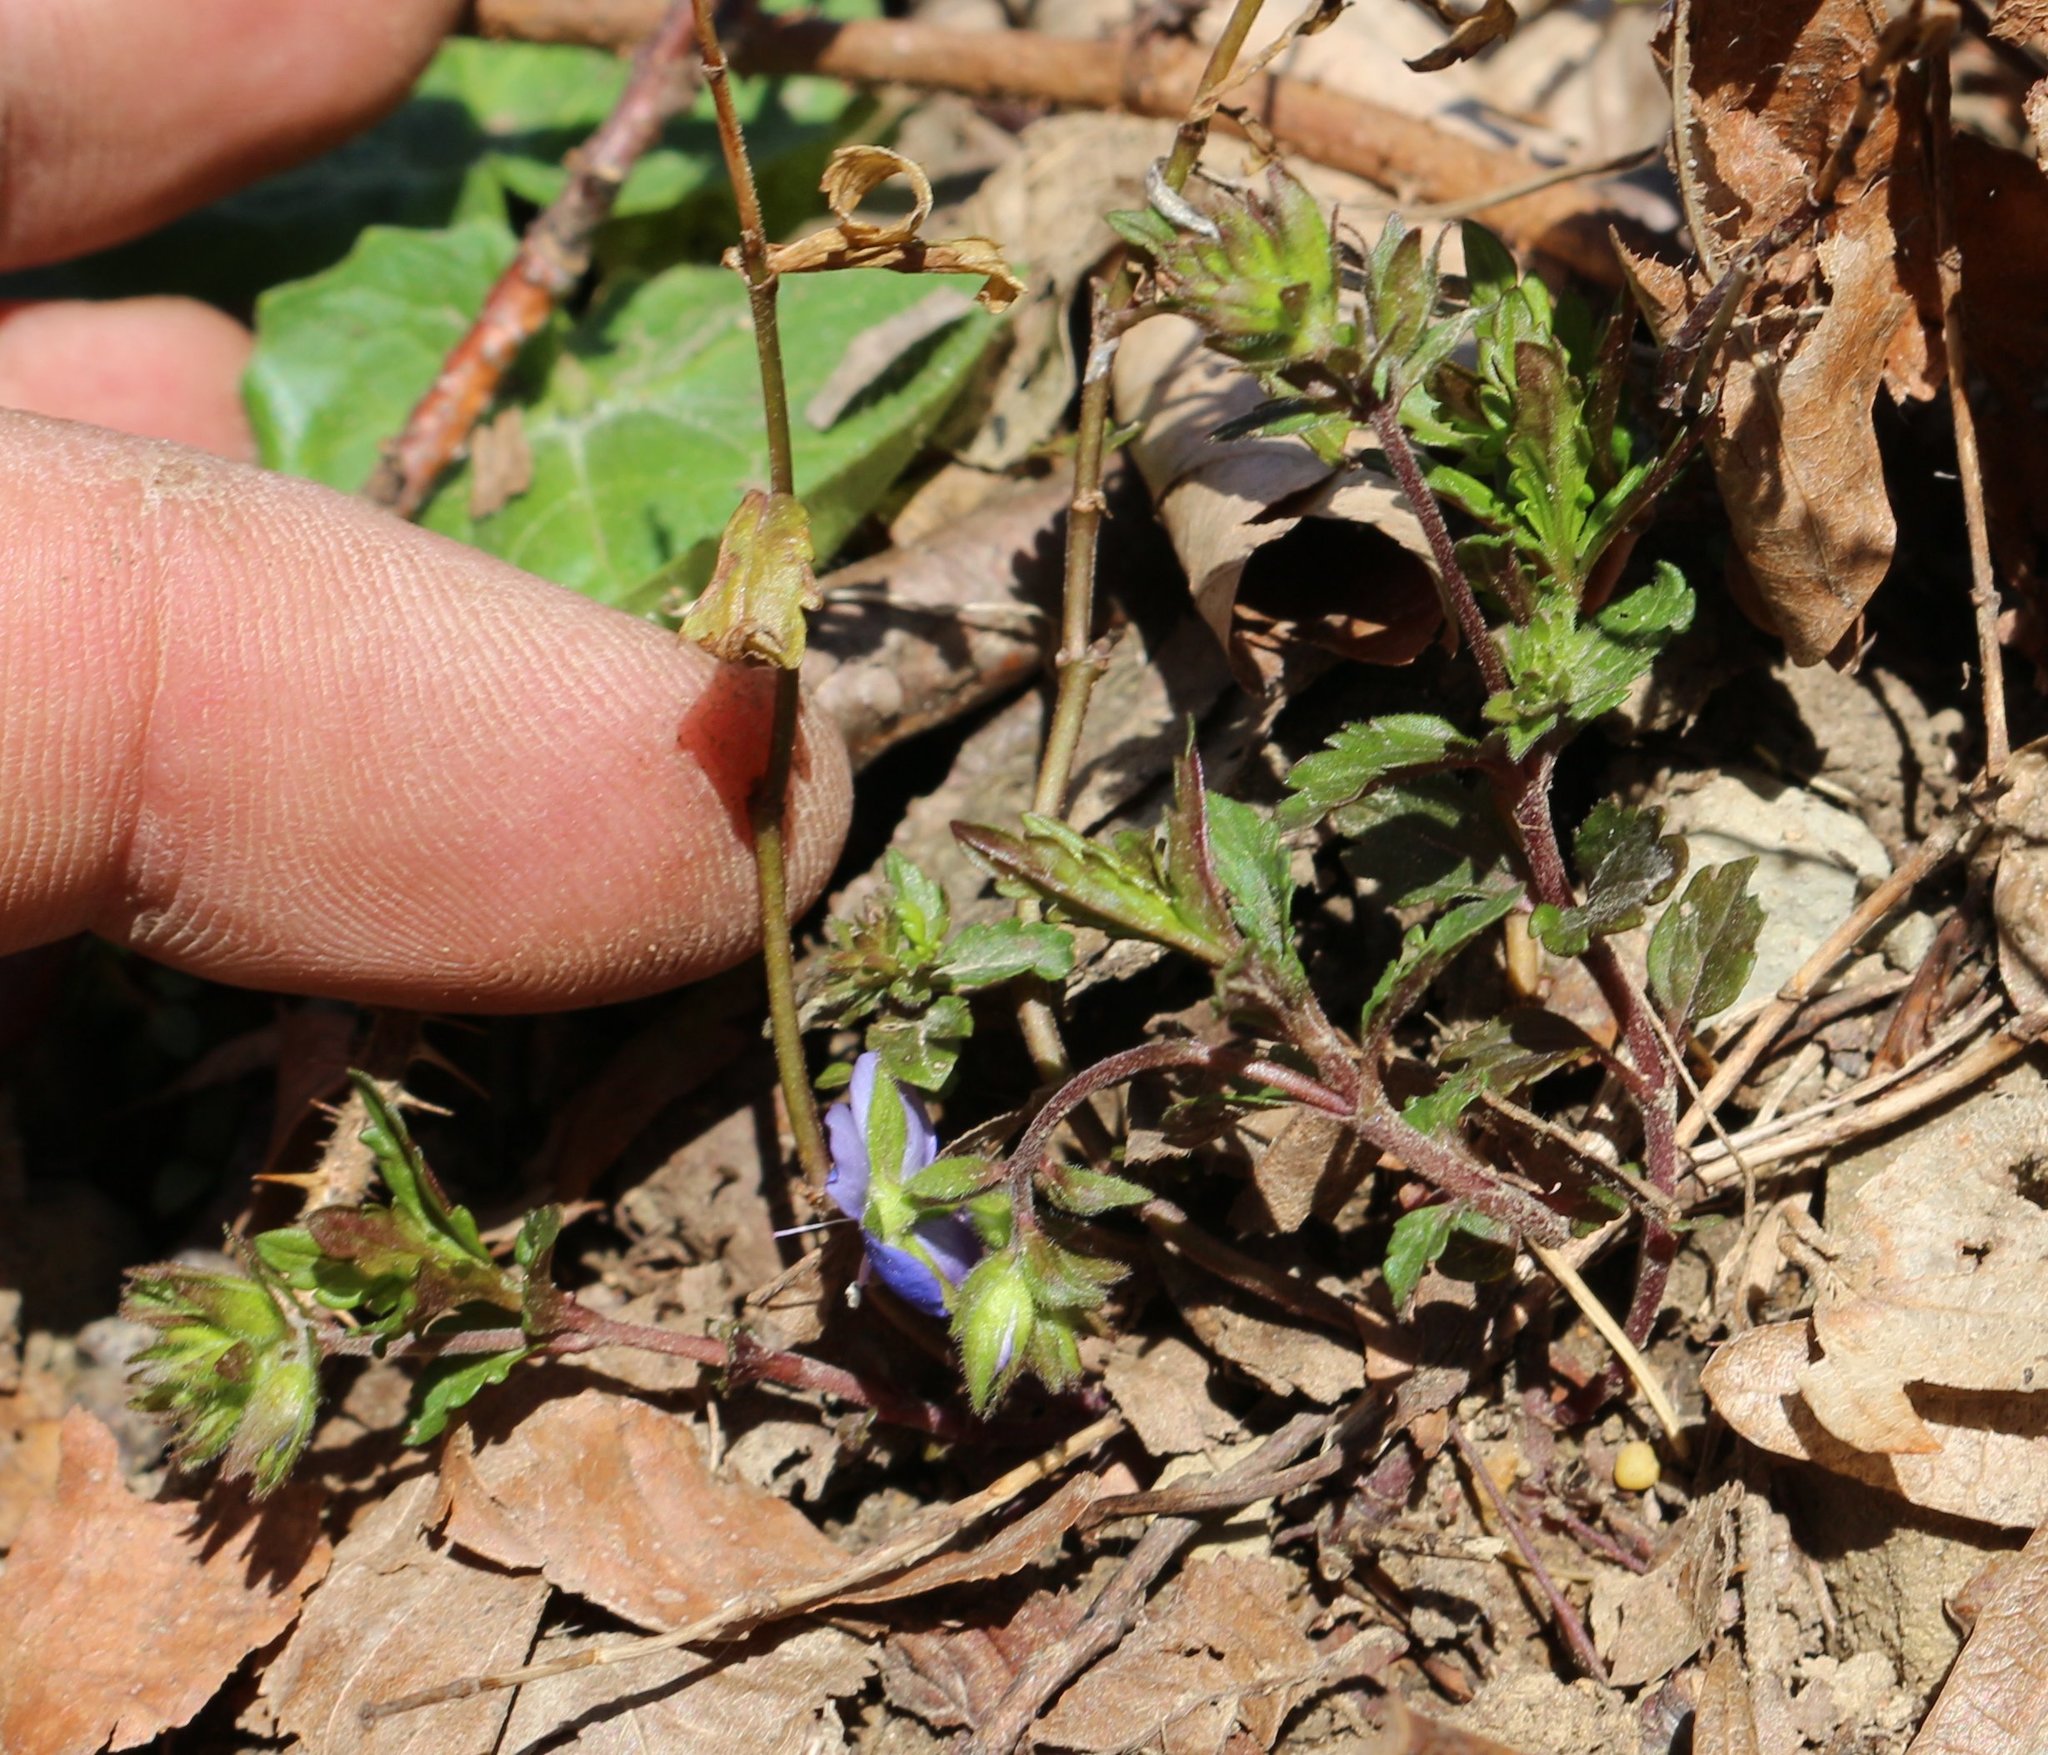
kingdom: Plantae
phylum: Tracheophyta
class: Magnoliopsida
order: Lamiales
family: Plantaginaceae
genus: Veronica
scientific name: Veronica
